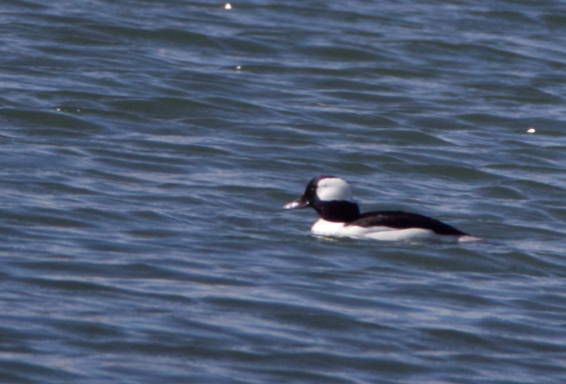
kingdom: Animalia
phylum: Chordata
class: Aves
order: Anseriformes
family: Anatidae
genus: Bucephala
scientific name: Bucephala albeola
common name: Bufflehead
